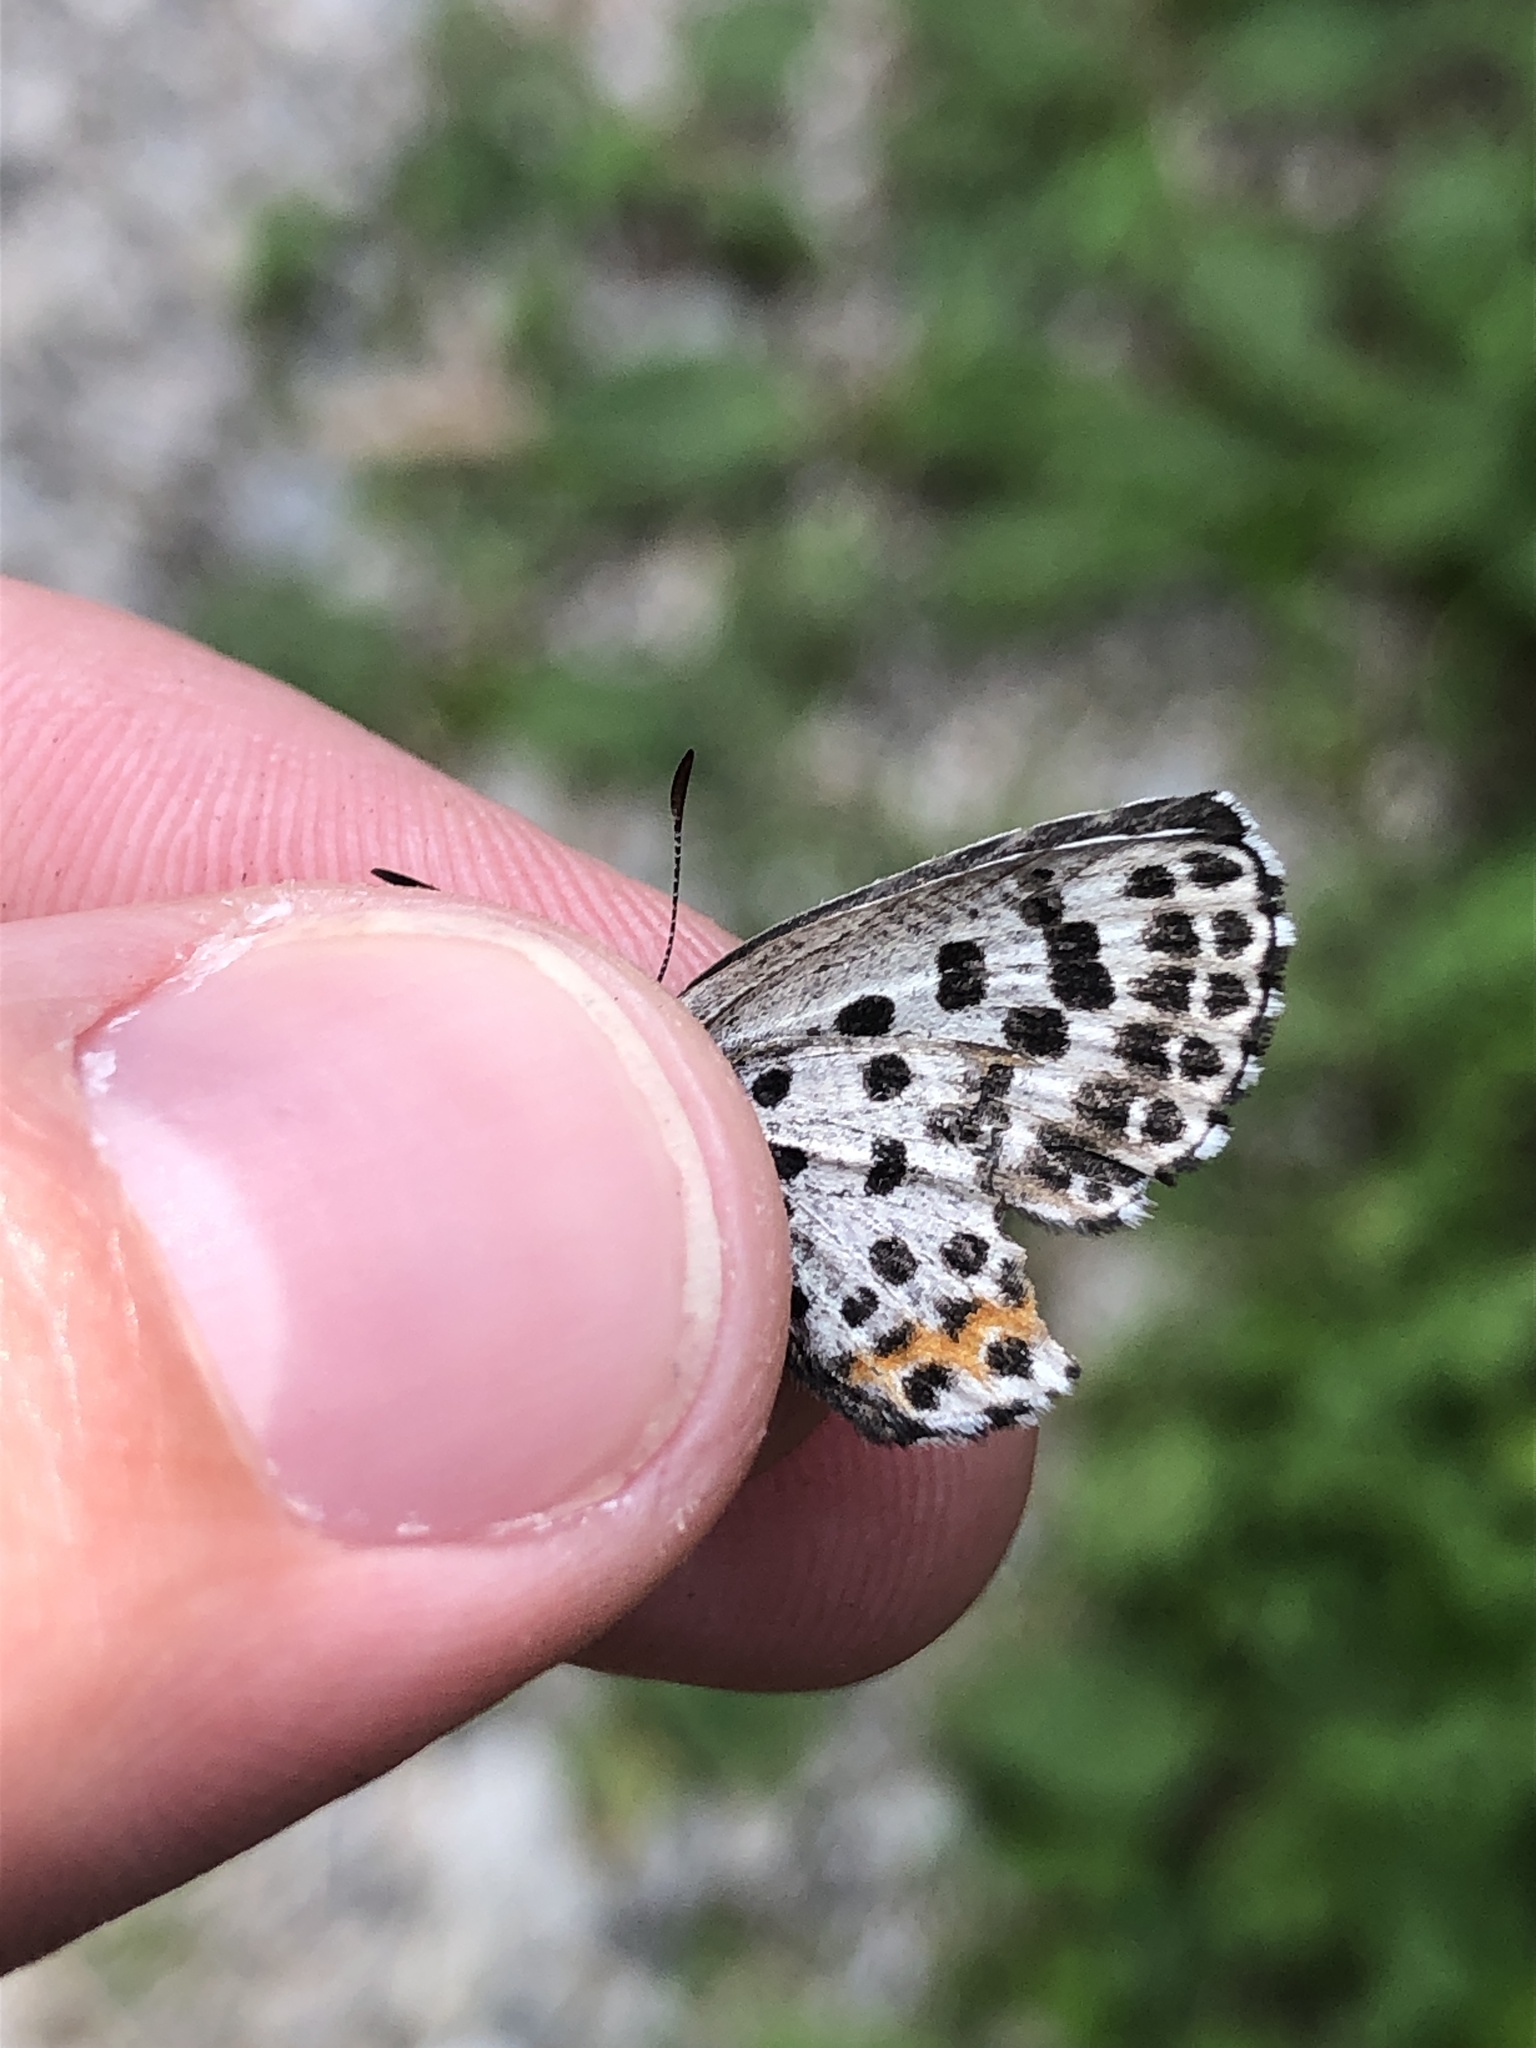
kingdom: Animalia
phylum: Arthropoda
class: Insecta
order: Lepidoptera
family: Lycaenidae
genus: Scolitantides
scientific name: Scolitantides orion
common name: Chequered blue
